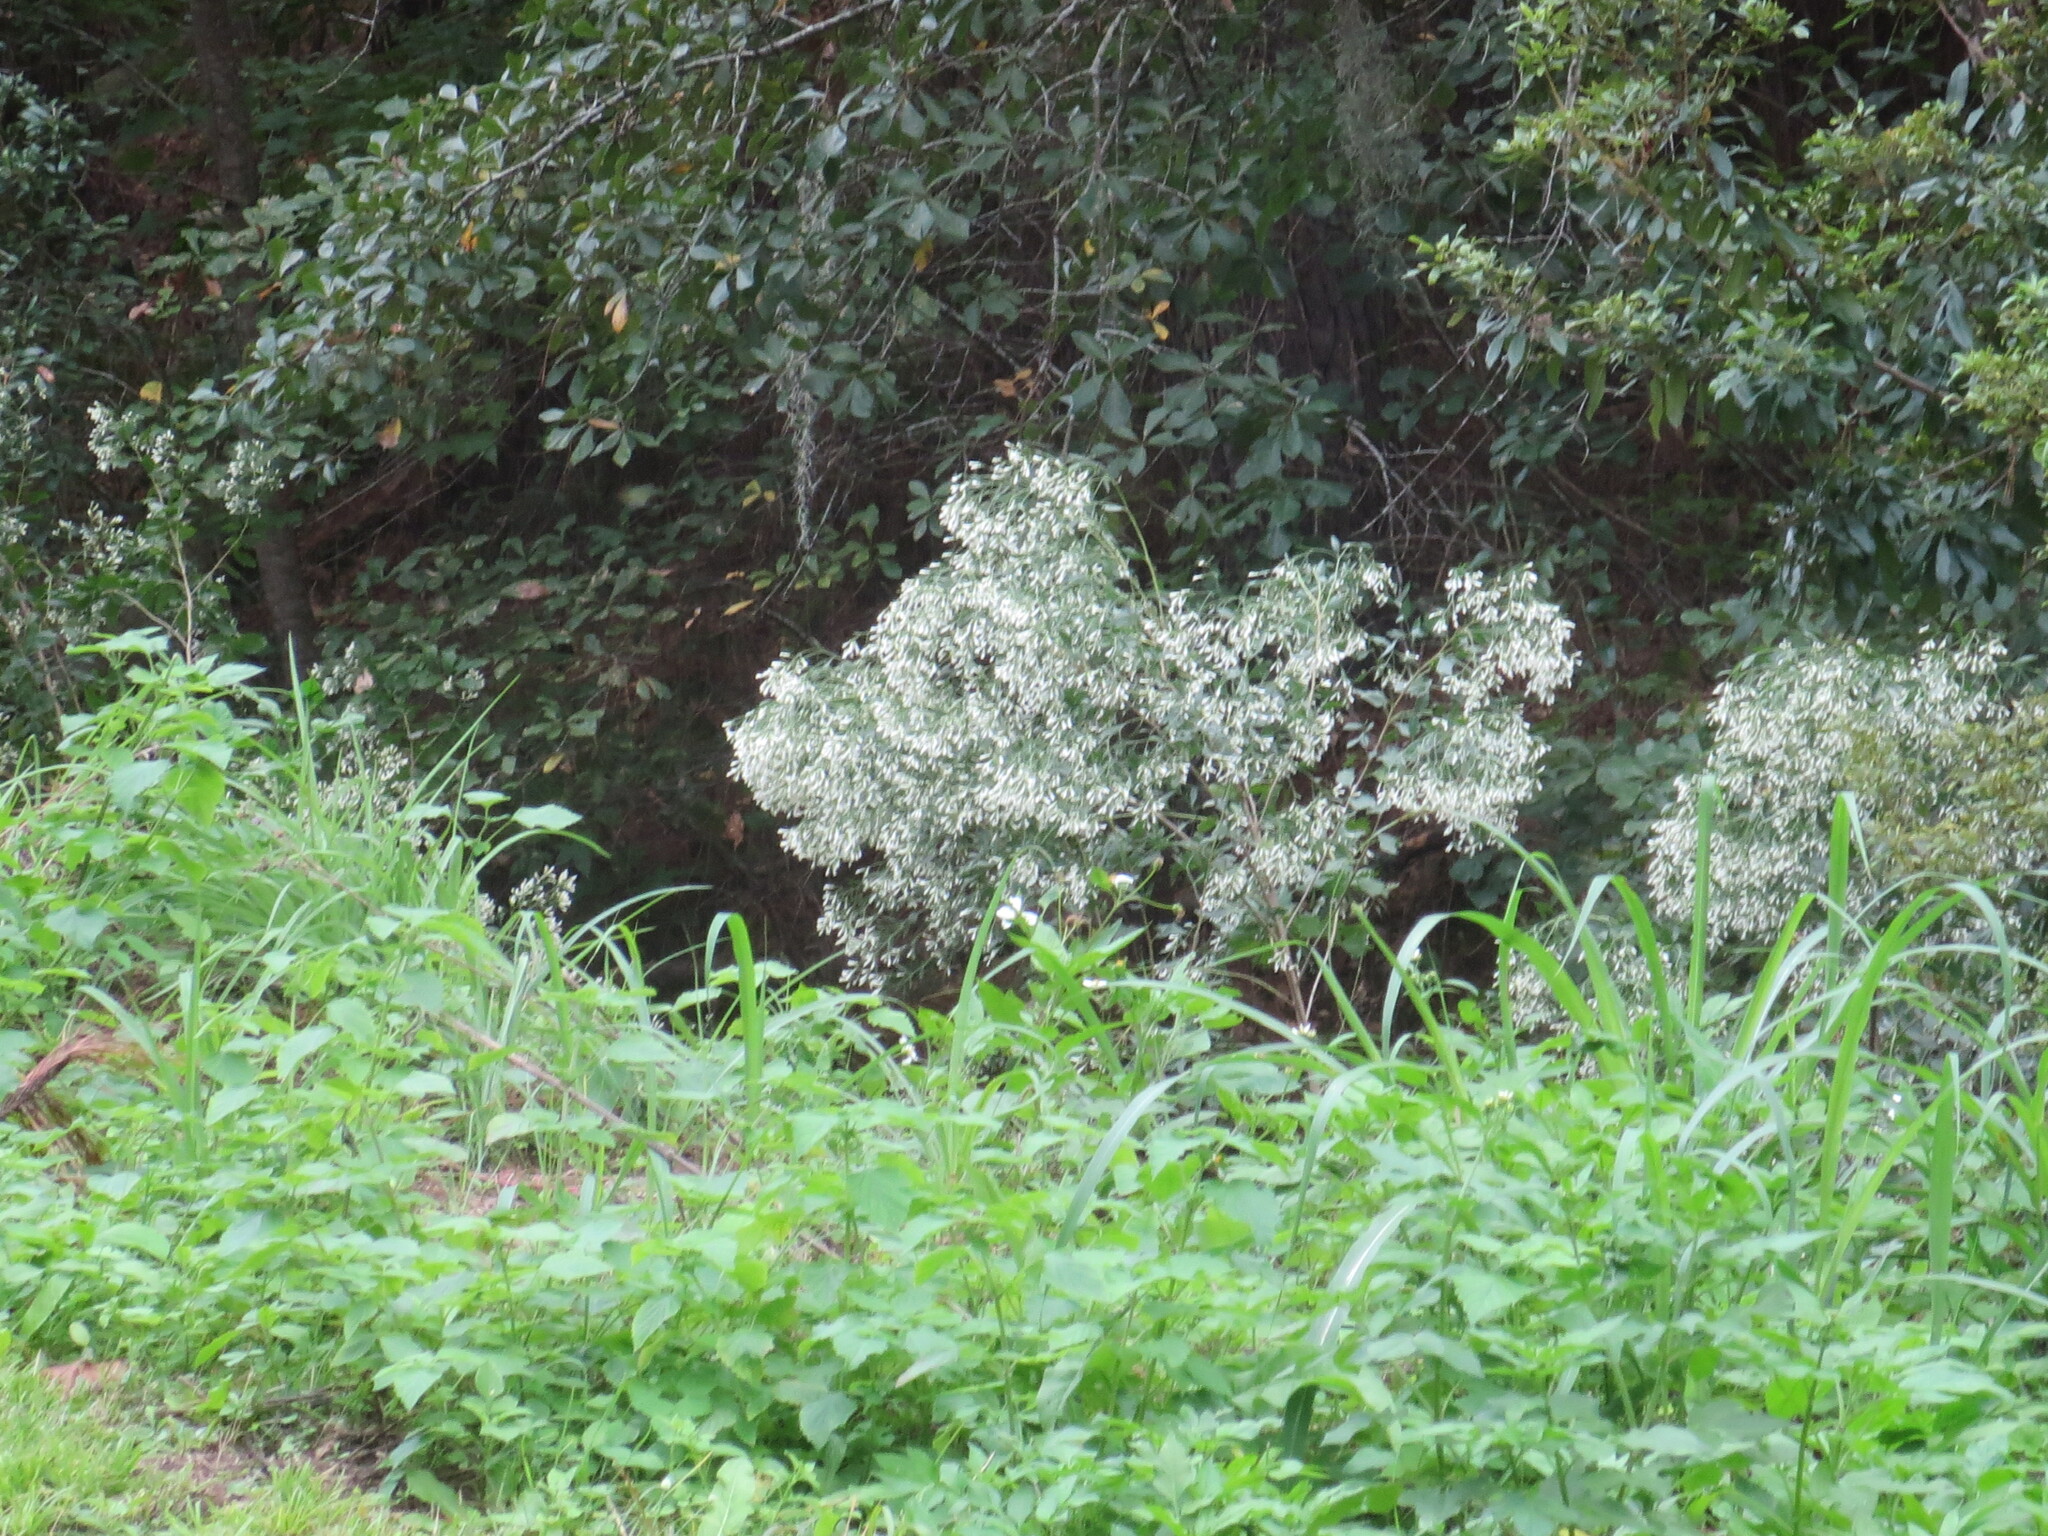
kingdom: Plantae
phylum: Tracheophyta
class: Magnoliopsida
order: Asterales
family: Asteraceae
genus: Baccharis
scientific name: Baccharis halimifolia
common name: Eastern baccharis
